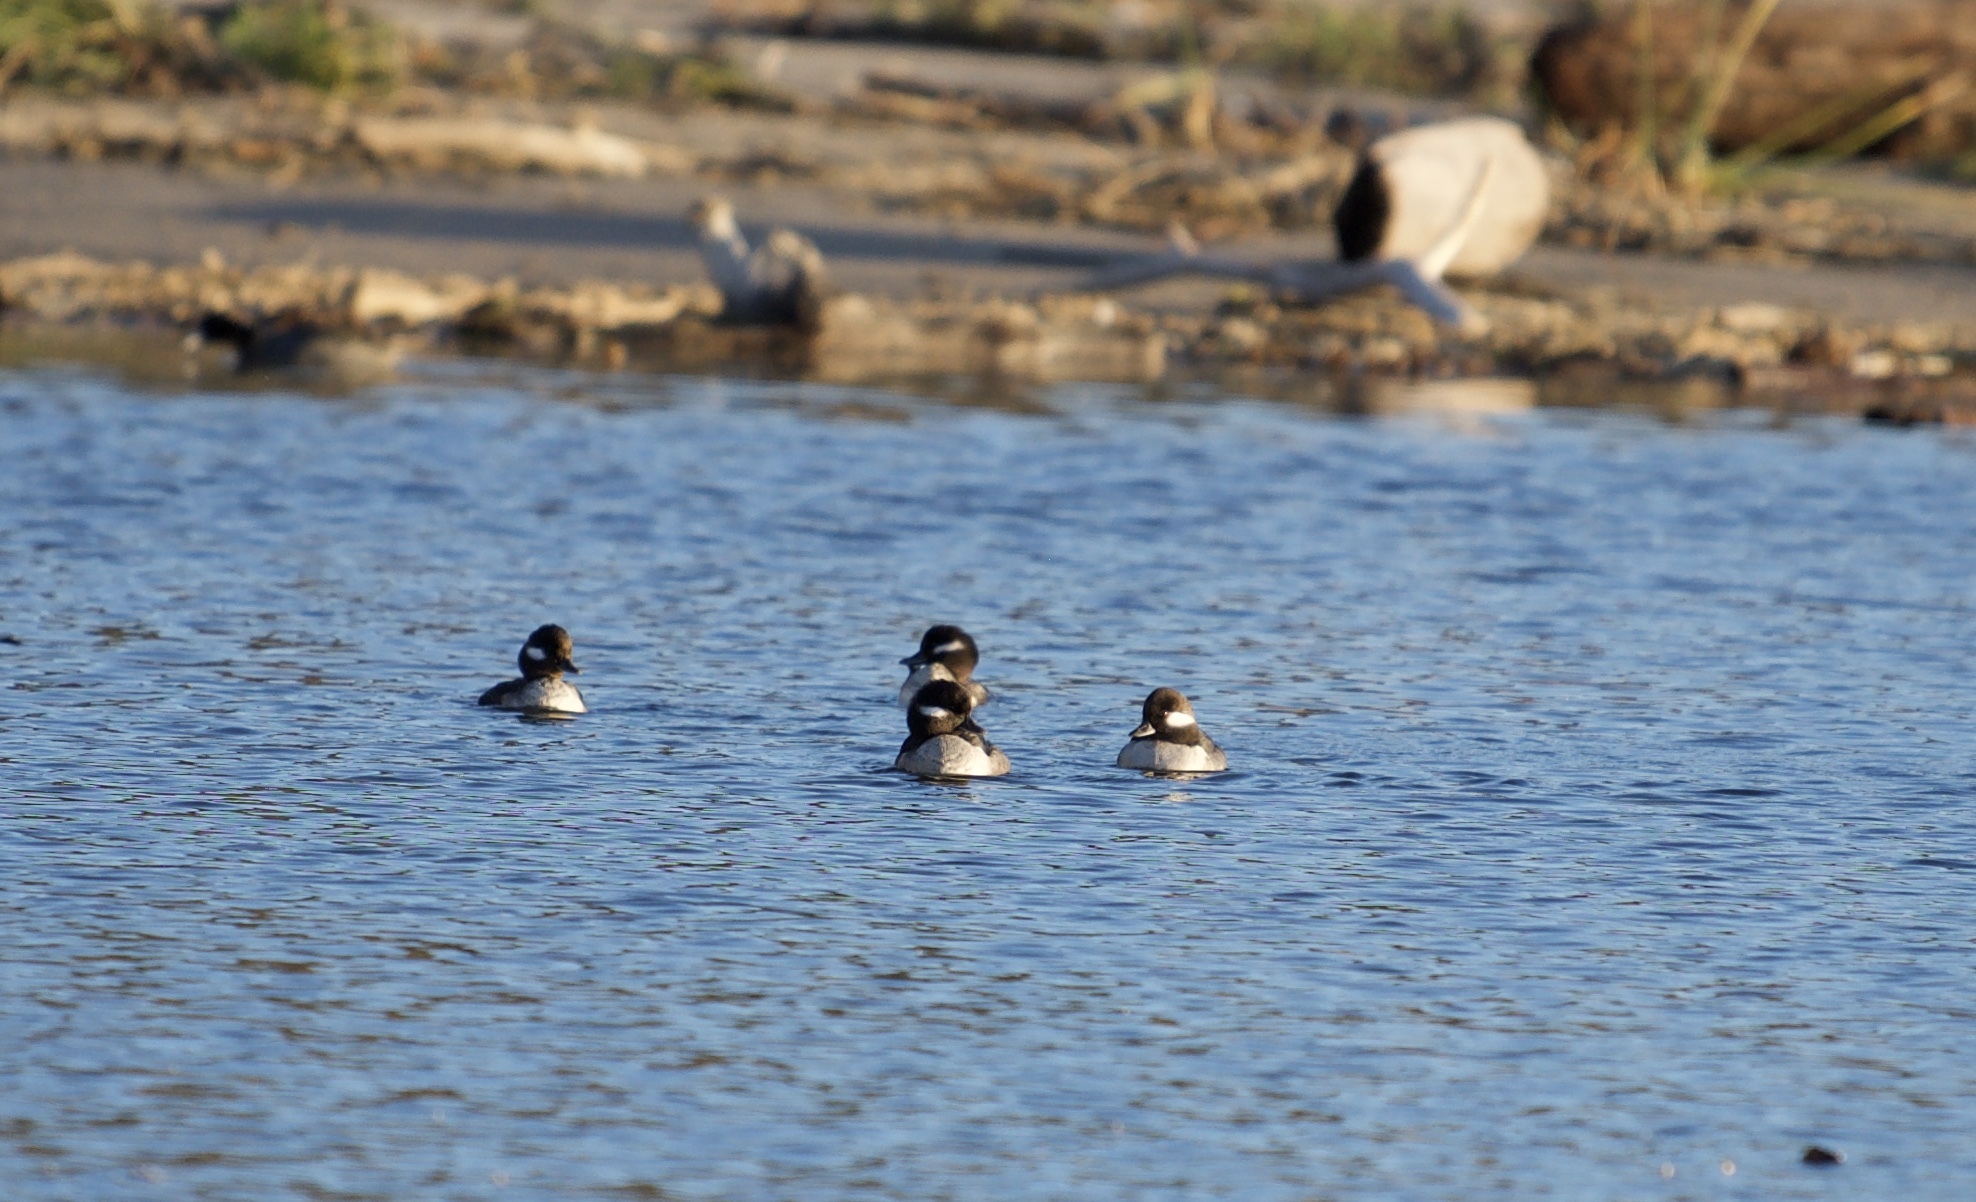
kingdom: Animalia
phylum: Chordata
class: Aves
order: Anseriformes
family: Anatidae
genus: Bucephala
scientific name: Bucephala albeola
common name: Bufflehead
